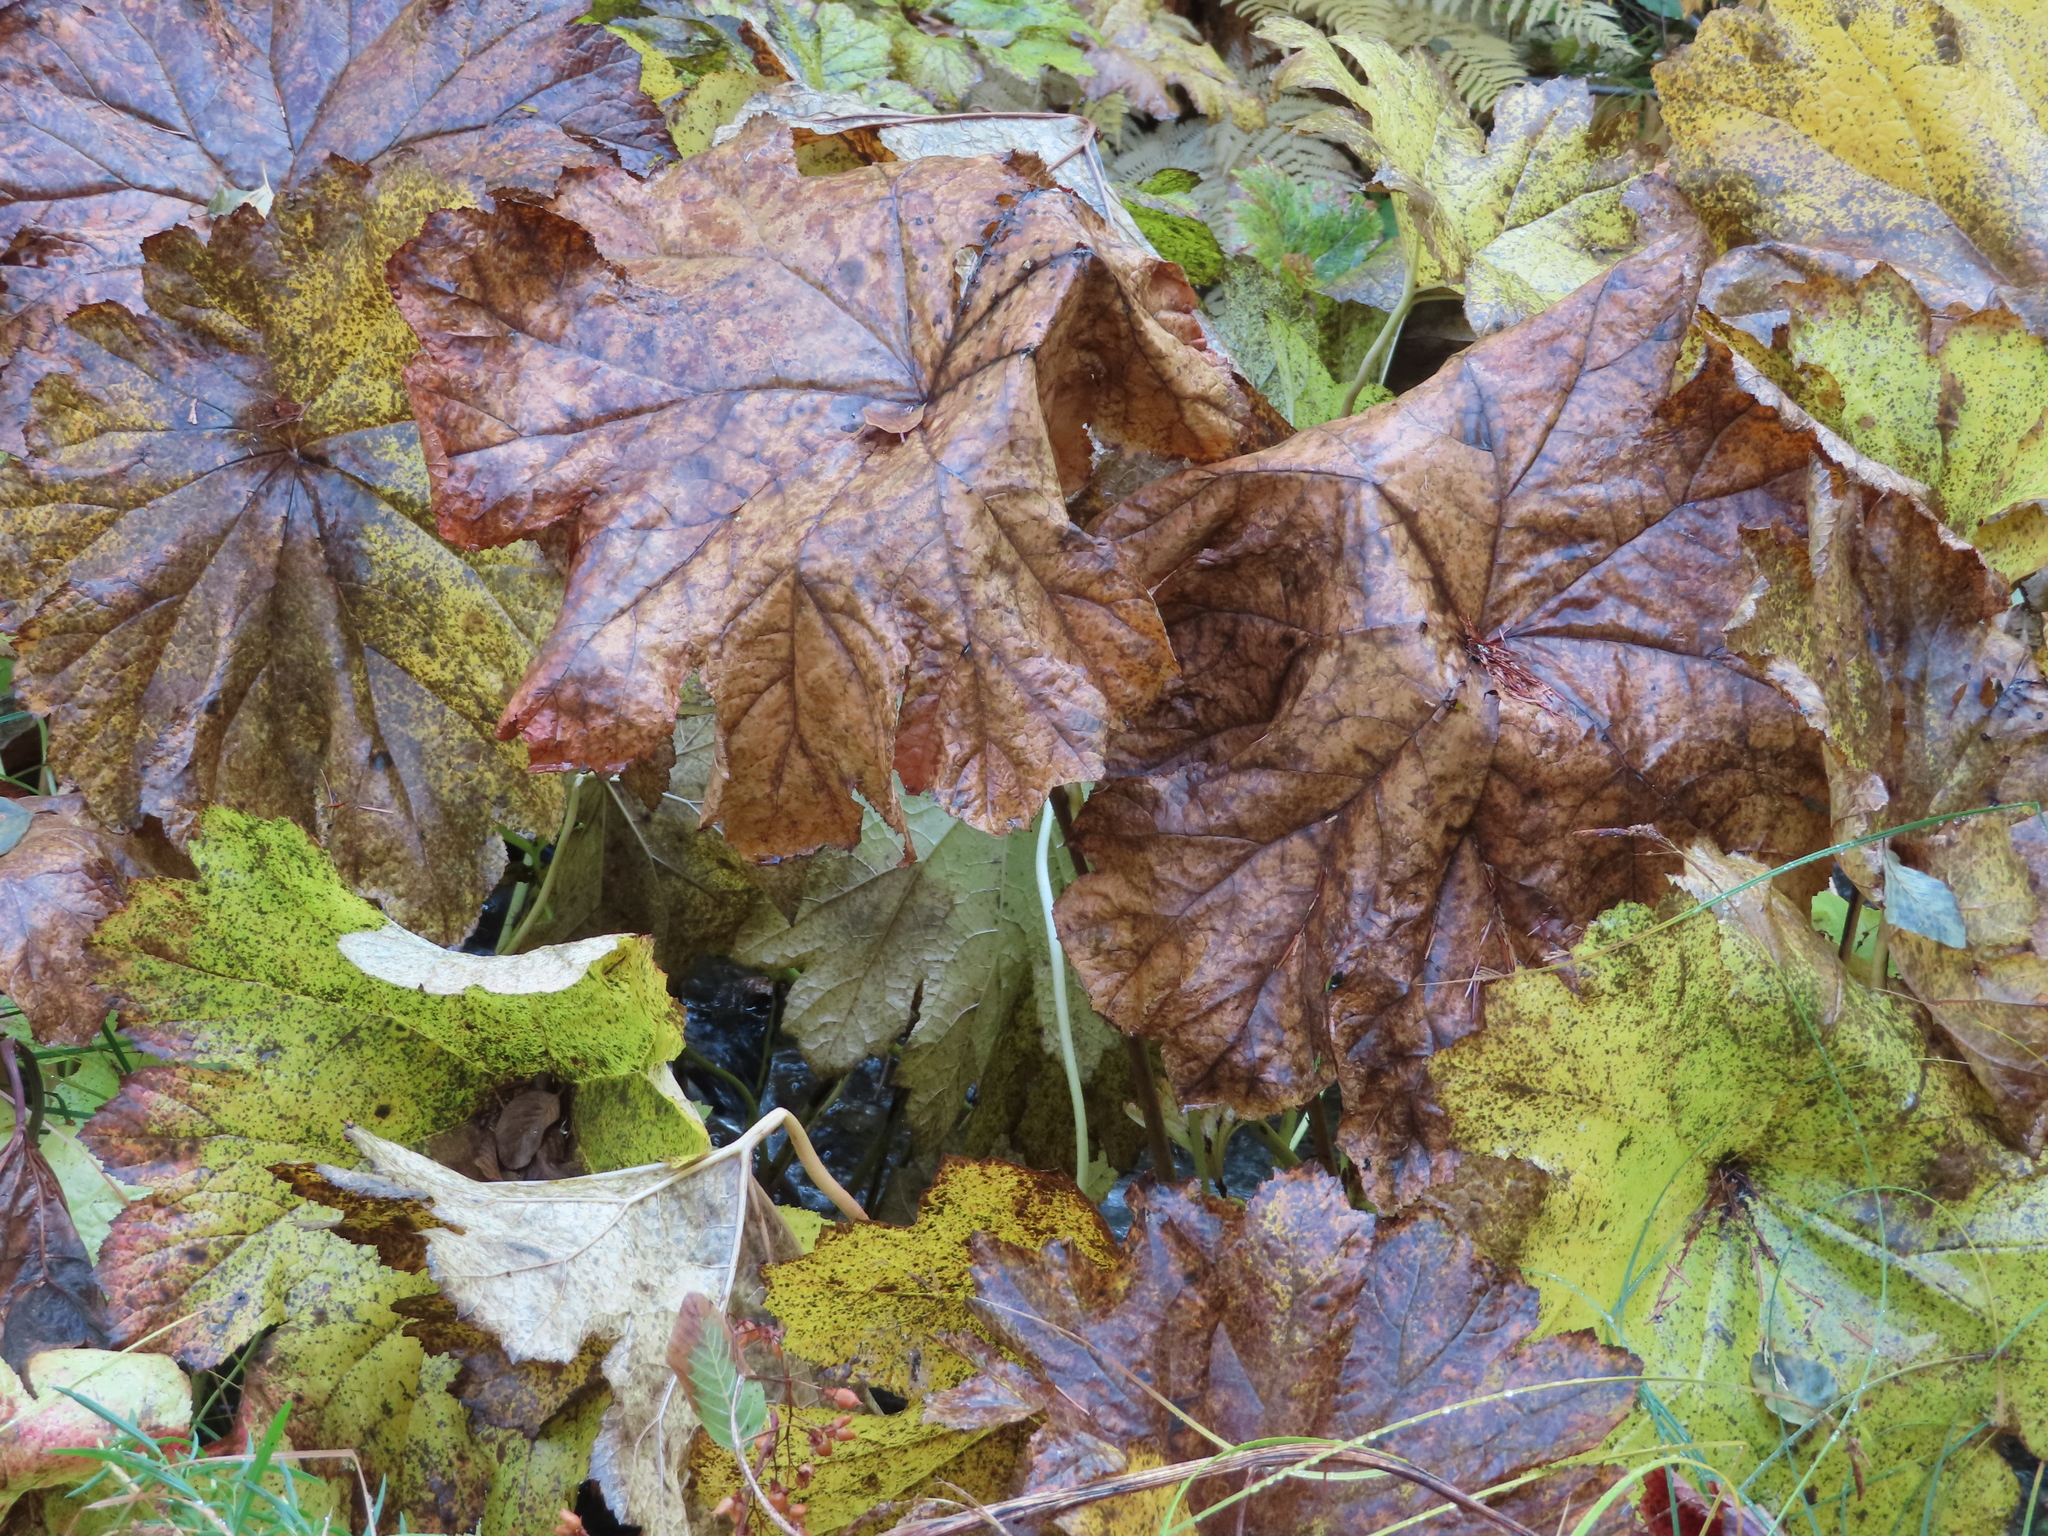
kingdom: Plantae
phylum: Tracheophyta
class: Magnoliopsida
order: Saxifragales
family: Saxifragaceae
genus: Darmera
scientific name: Darmera peltata
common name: Indian-rhubarb
